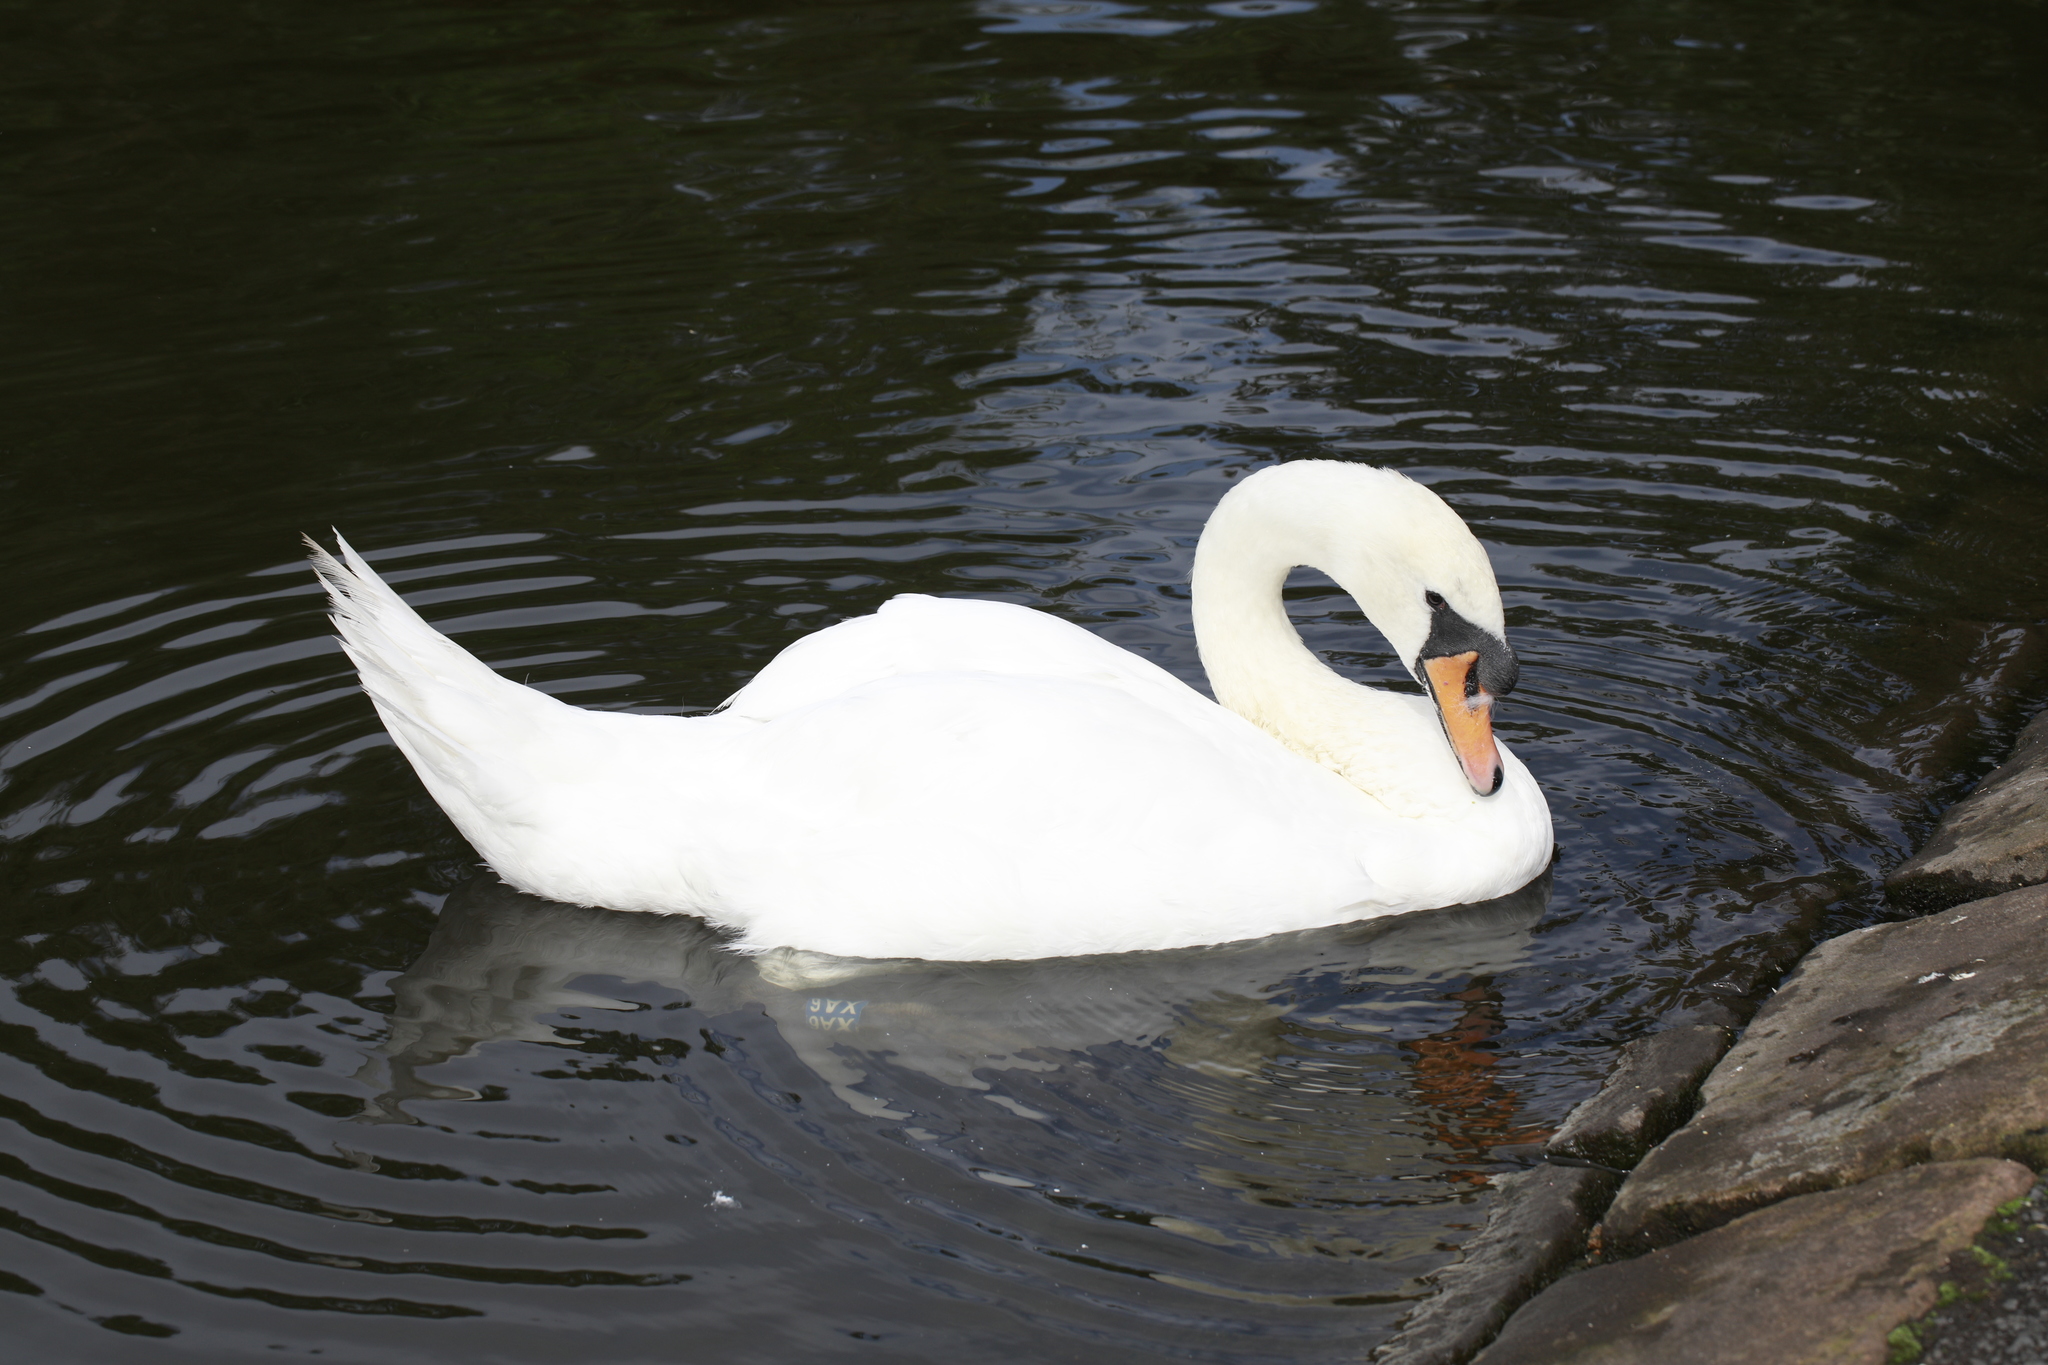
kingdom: Animalia
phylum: Chordata
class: Aves
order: Anseriformes
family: Anatidae
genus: Cygnus
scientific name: Cygnus olor
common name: Mute swan
